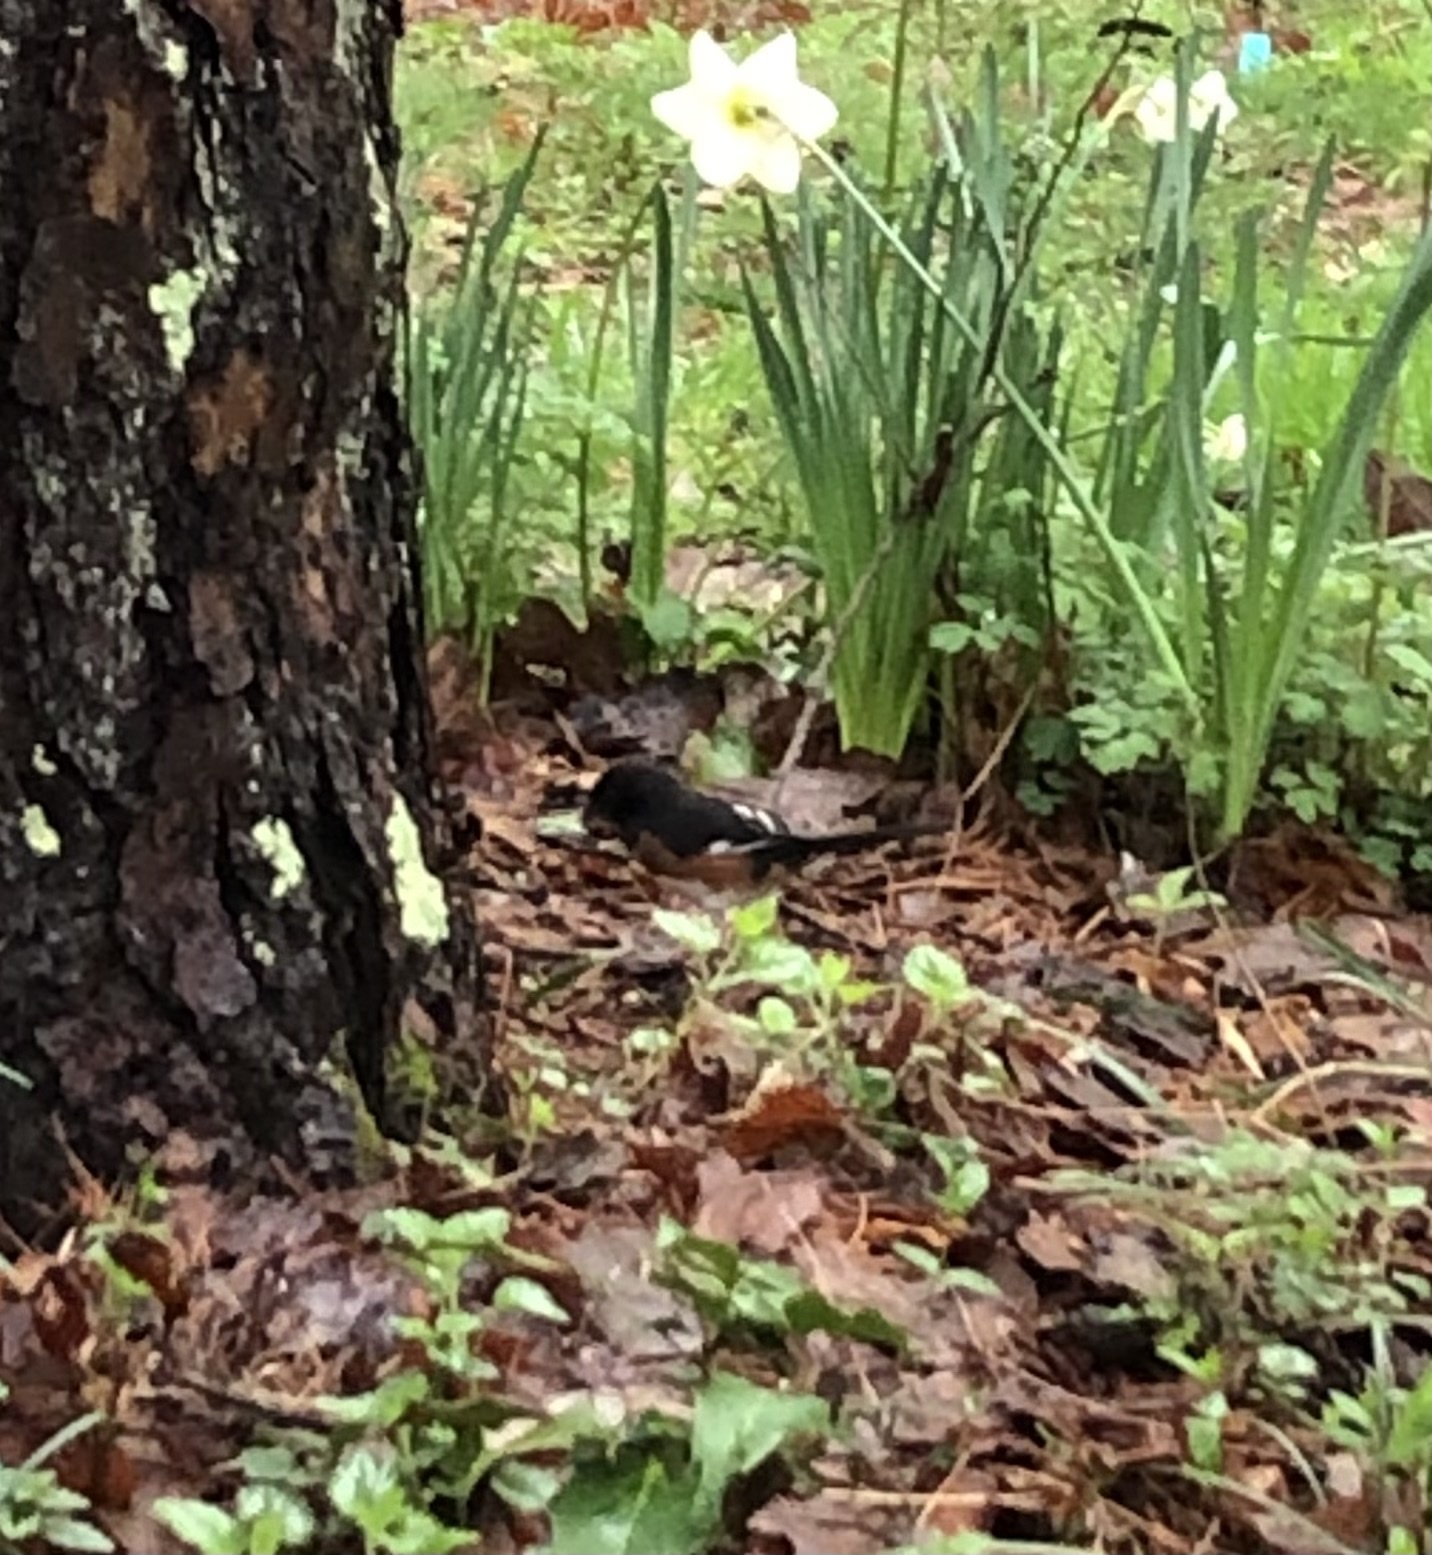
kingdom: Animalia
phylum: Chordata
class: Aves
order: Passeriformes
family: Passerellidae
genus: Pipilo
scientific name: Pipilo erythrophthalmus
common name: Eastern towhee
